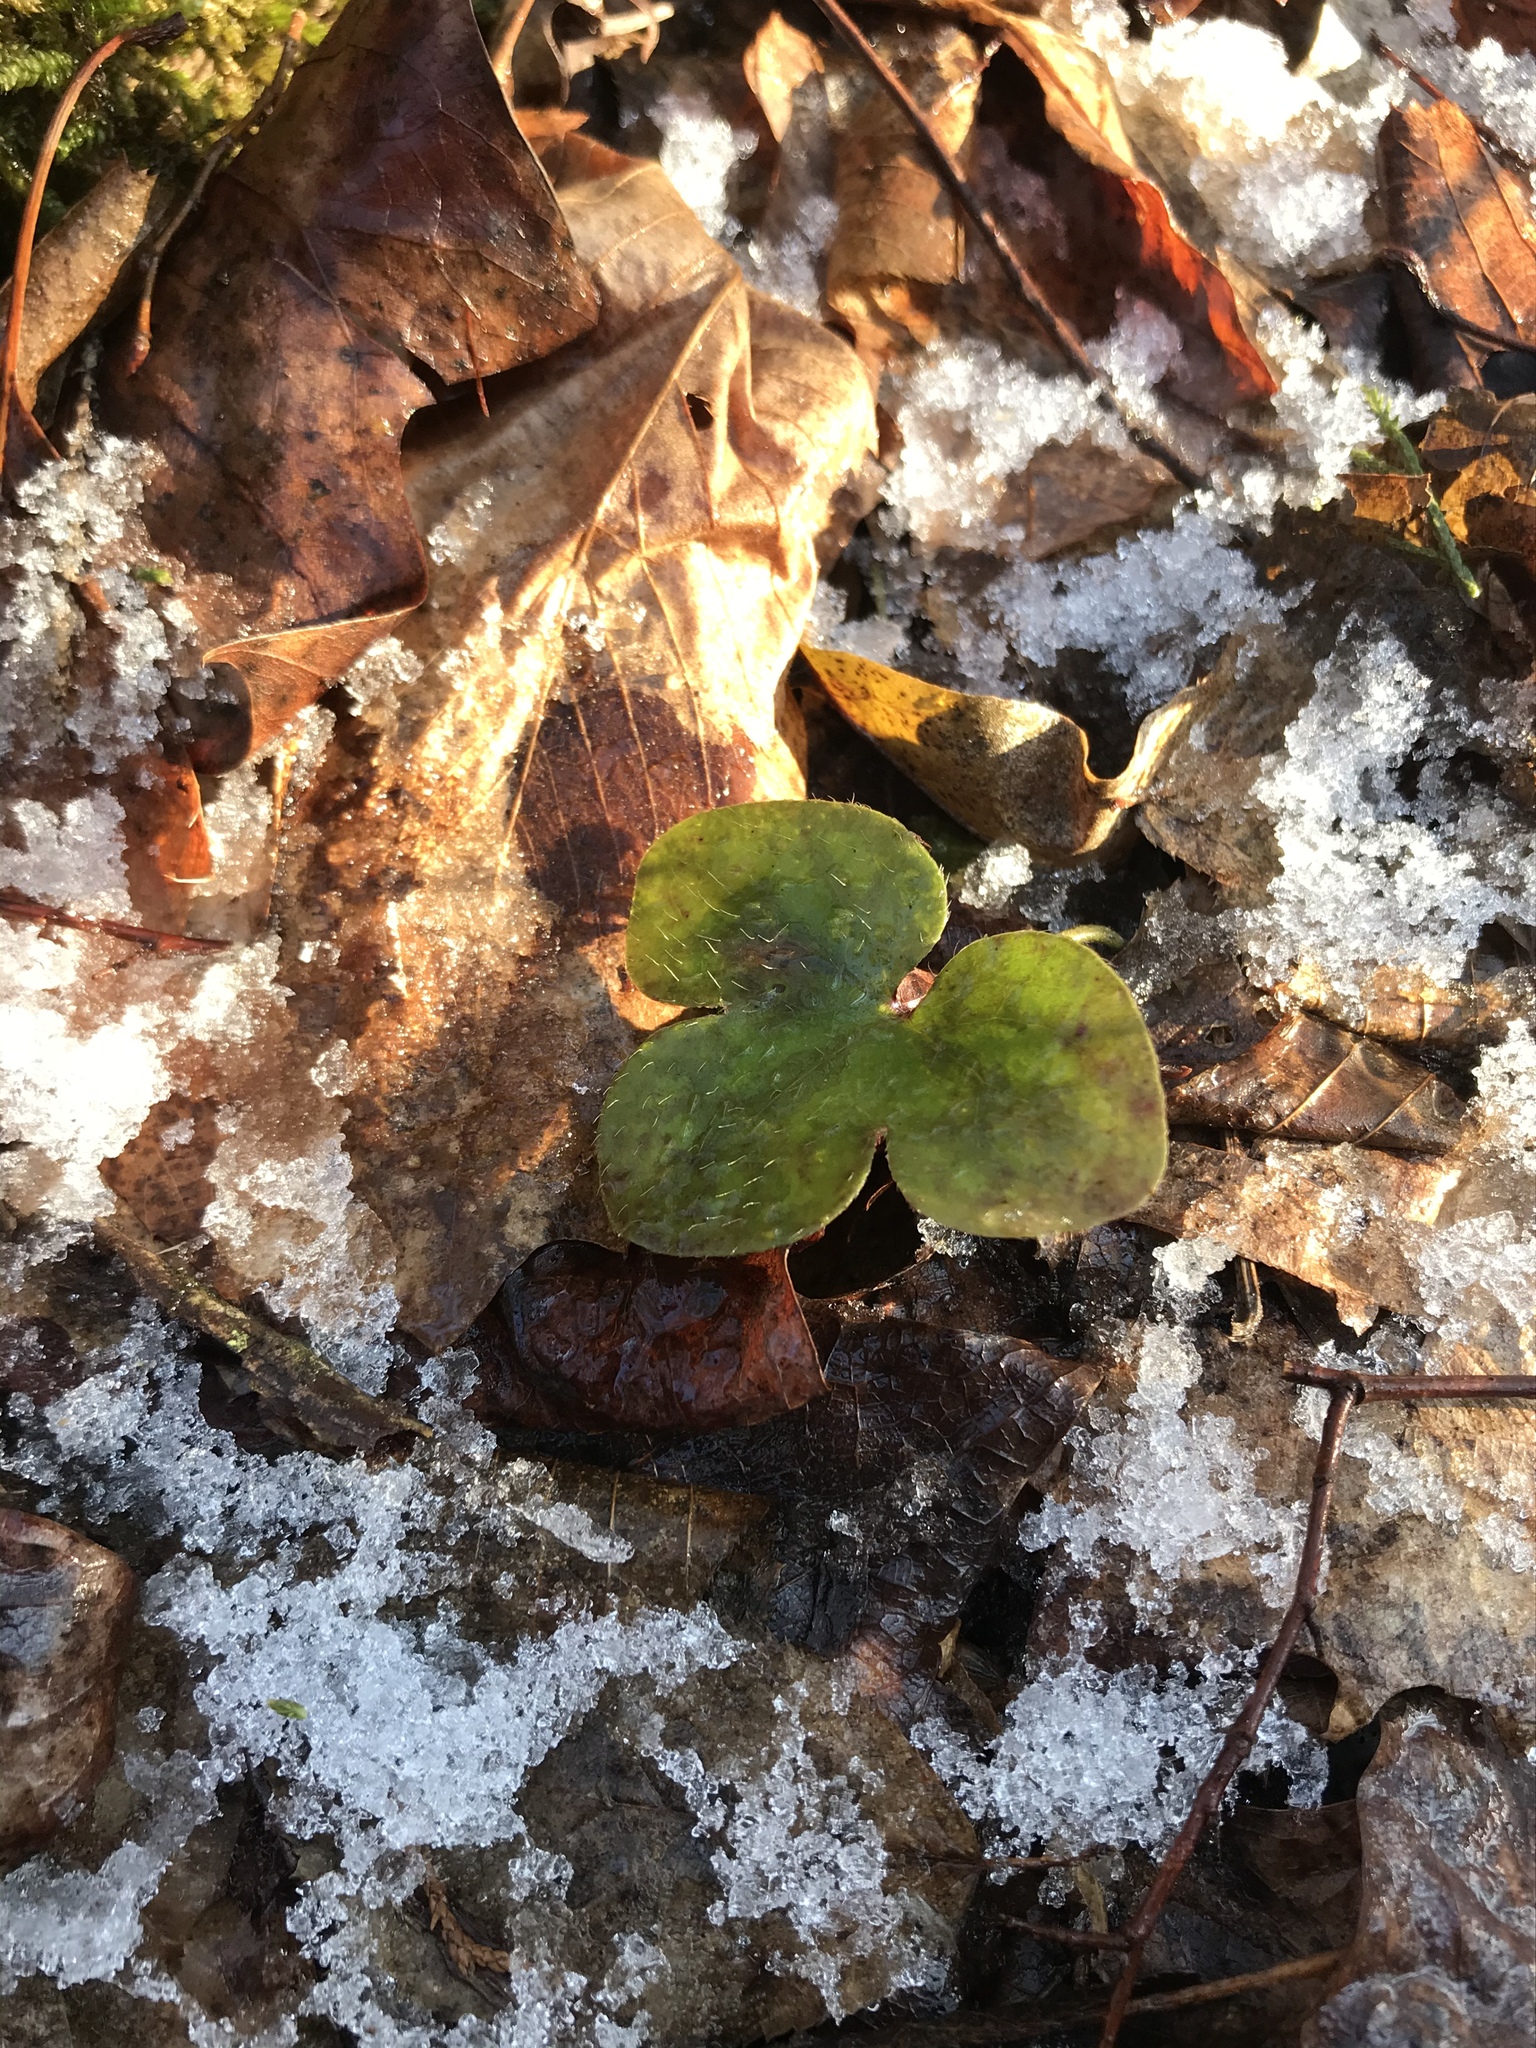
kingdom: Plantae
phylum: Tracheophyta
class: Magnoliopsida
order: Ranunculales
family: Ranunculaceae
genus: Hepatica
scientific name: Hepatica americana
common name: American hepatica
